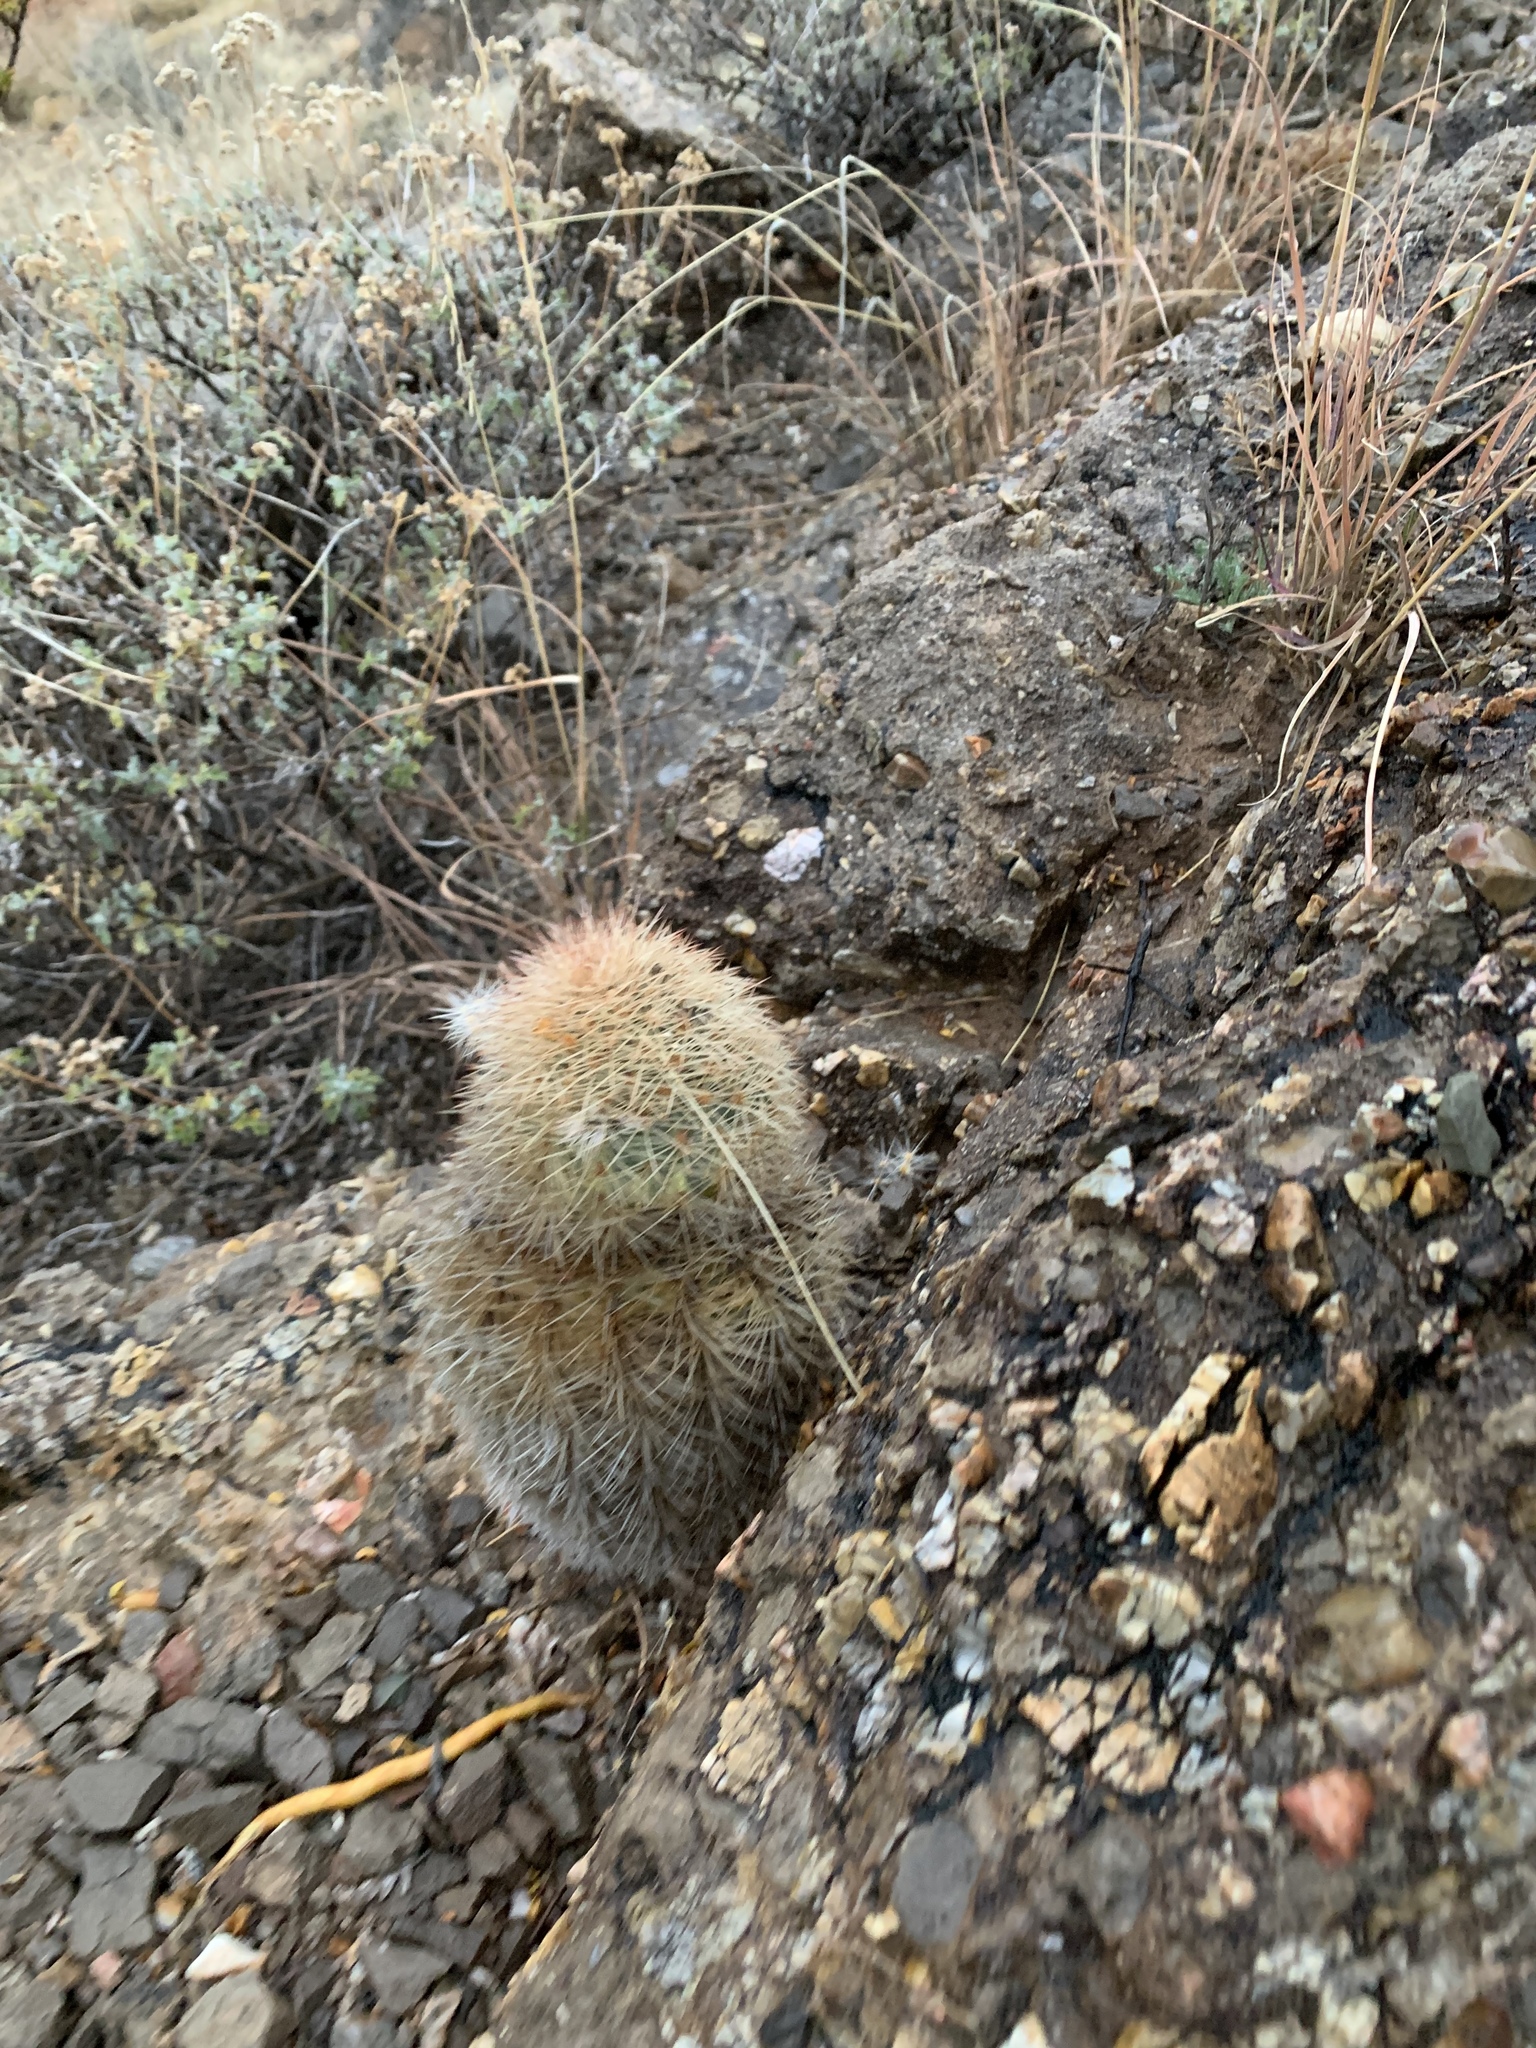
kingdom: Plantae
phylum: Tracheophyta
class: Magnoliopsida
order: Caryophyllales
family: Cactaceae
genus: Echinocereus
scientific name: Echinocereus dasyacanthus
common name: Spiny hedgehog cactus
